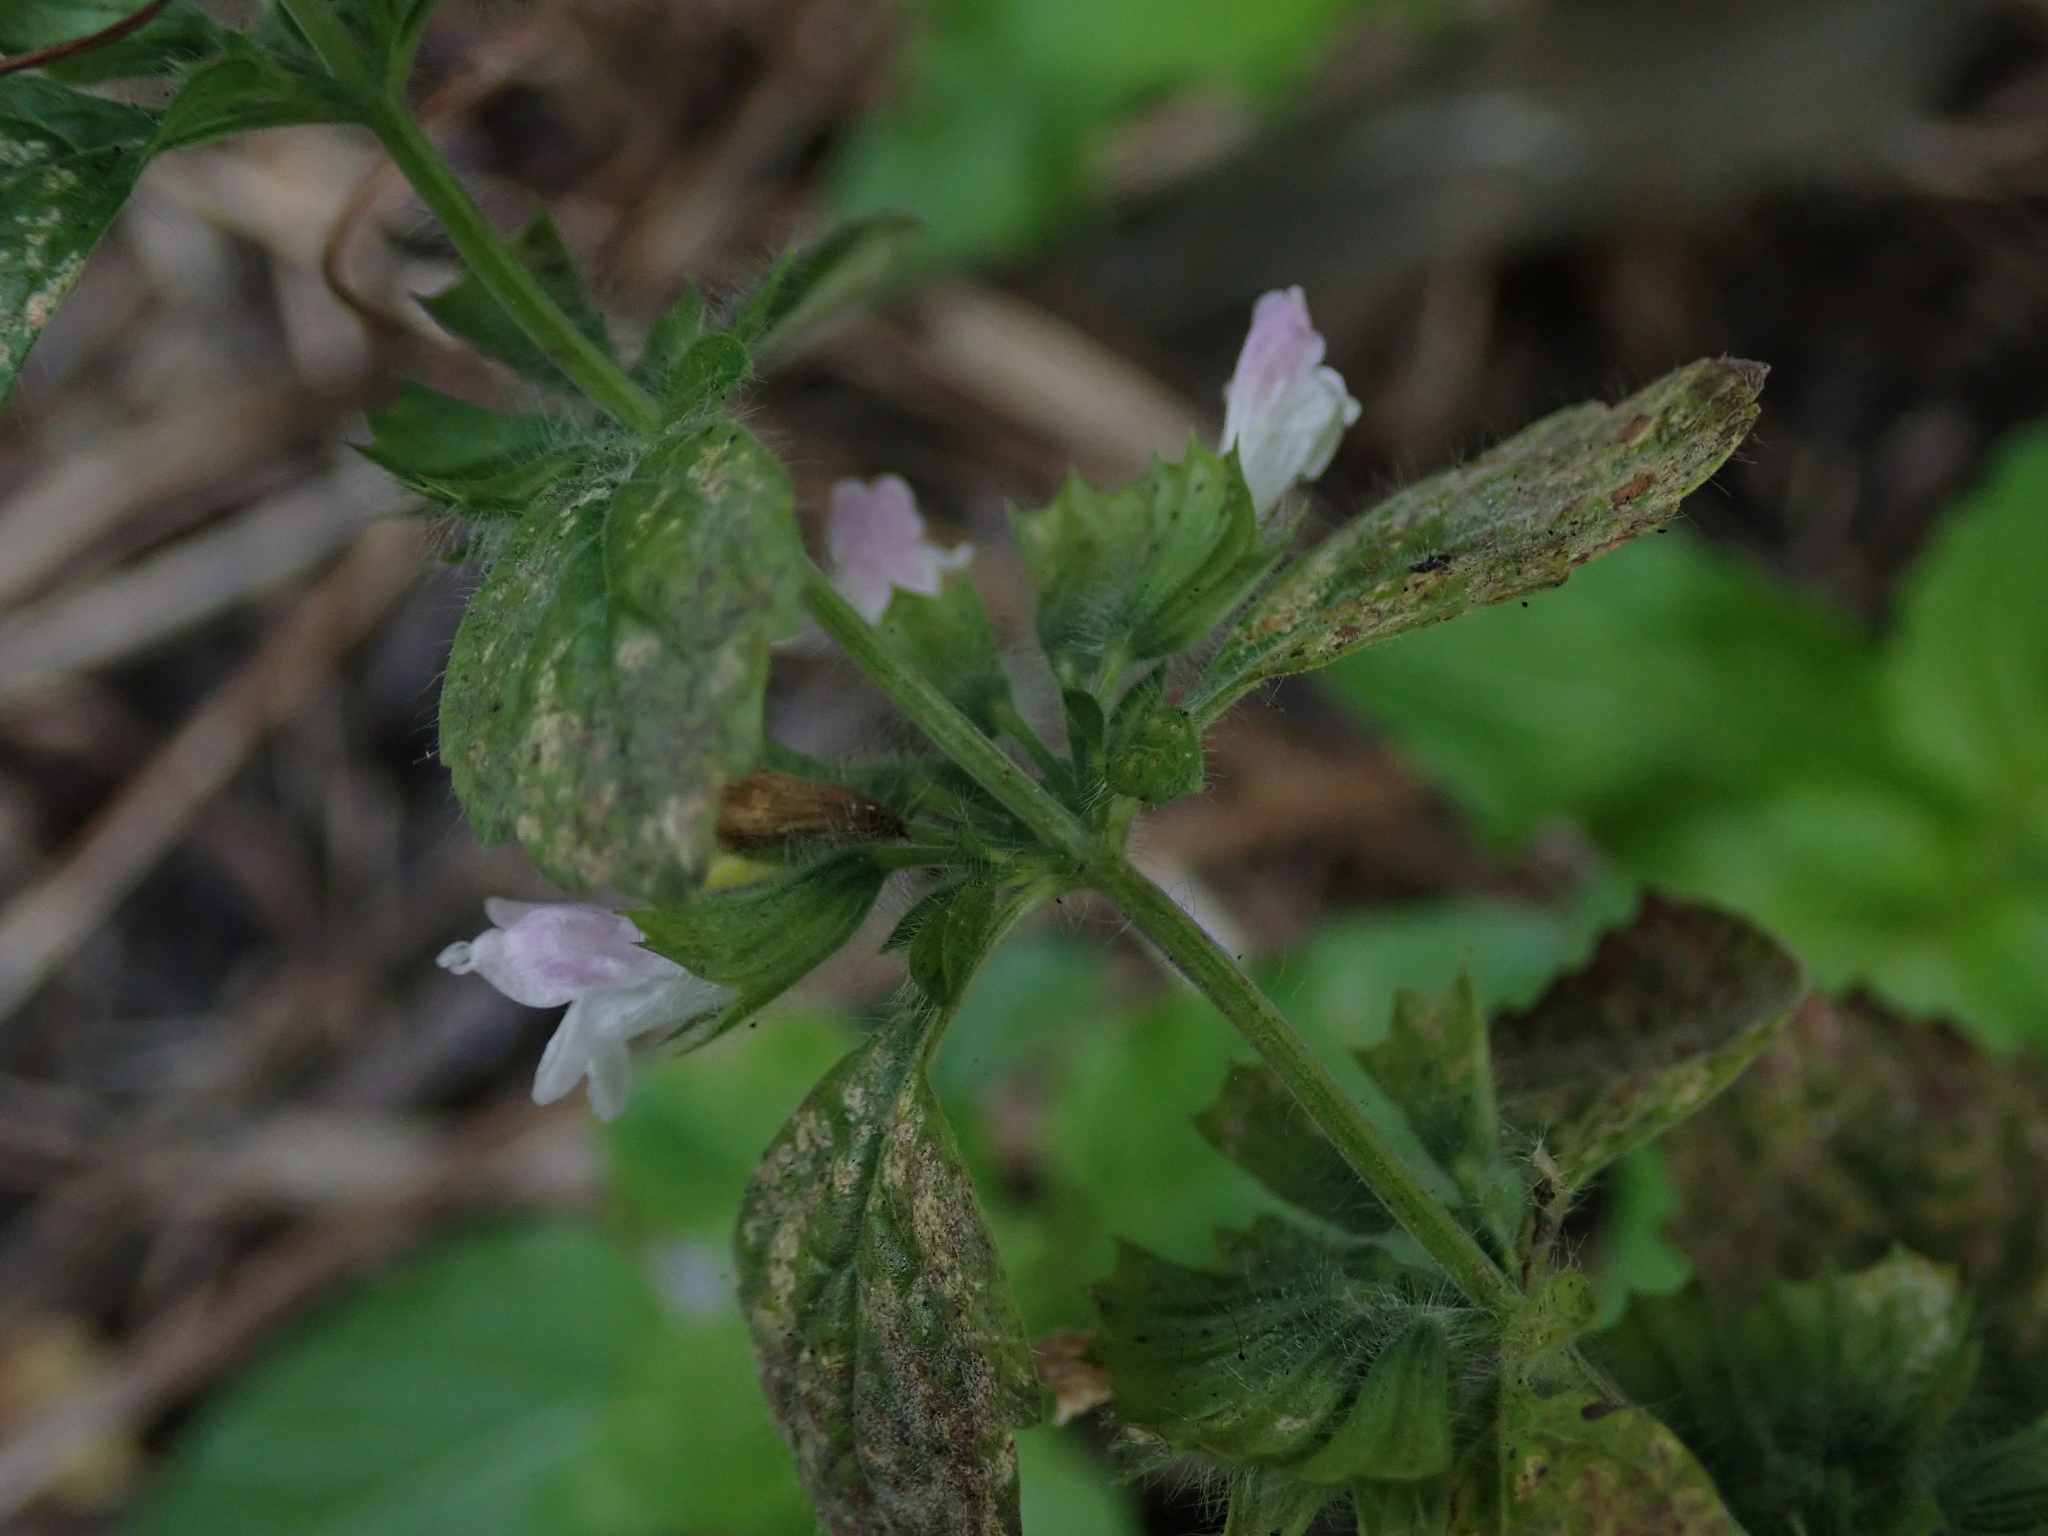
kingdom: Plantae
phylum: Tracheophyta
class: Magnoliopsida
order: Lamiales
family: Lamiaceae
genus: Melissa
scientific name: Melissa officinalis
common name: Balm
